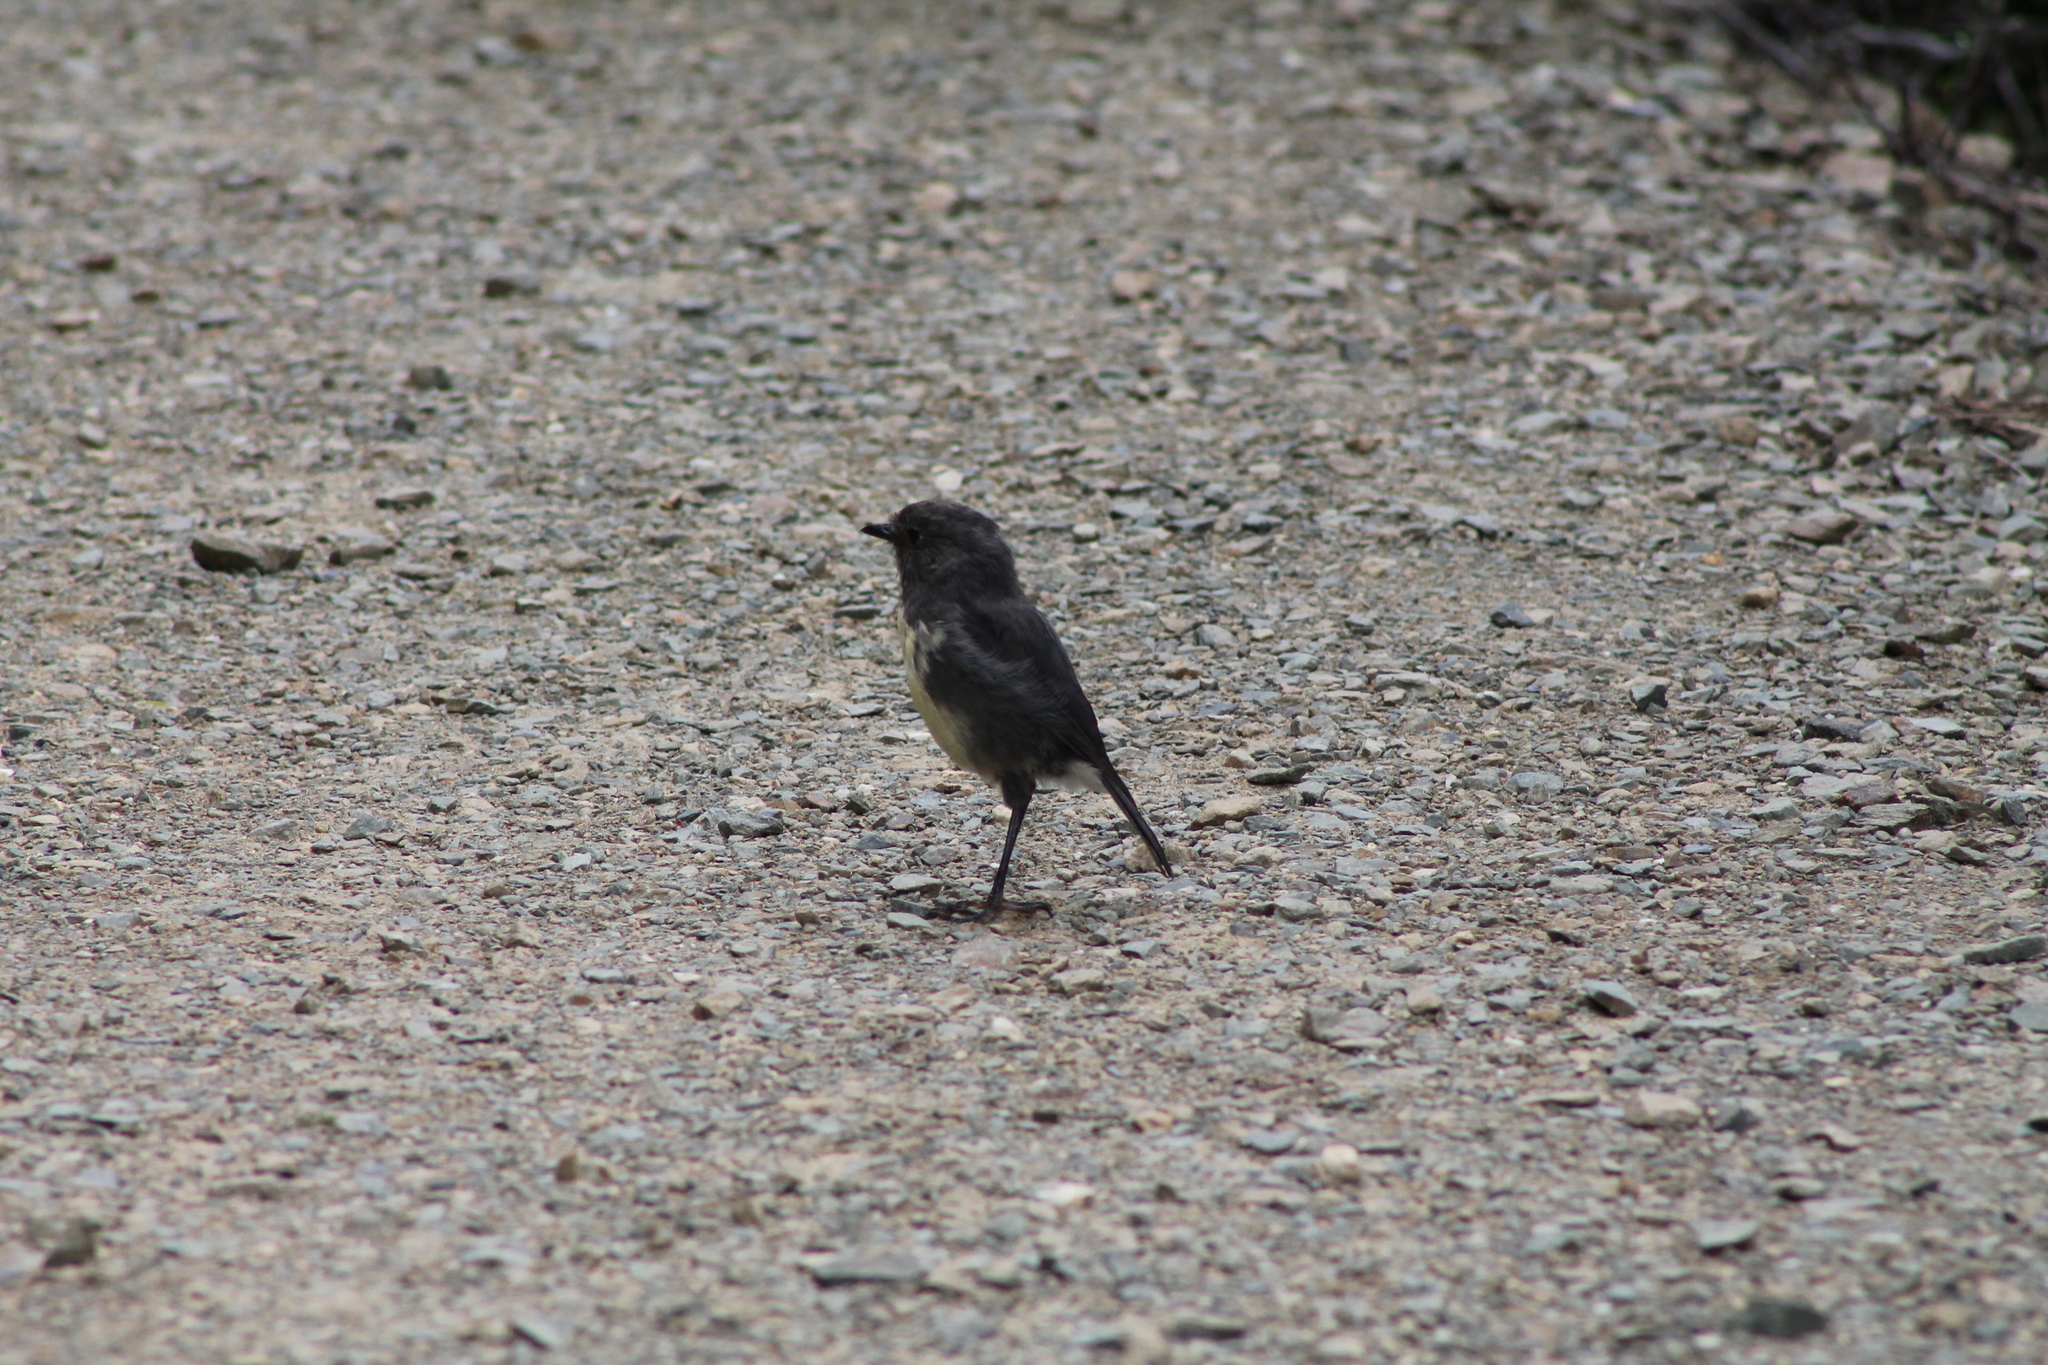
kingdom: Animalia
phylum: Chordata
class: Aves
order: Passeriformes
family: Petroicidae
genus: Petroica
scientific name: Petroica australis
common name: New zealand robin
